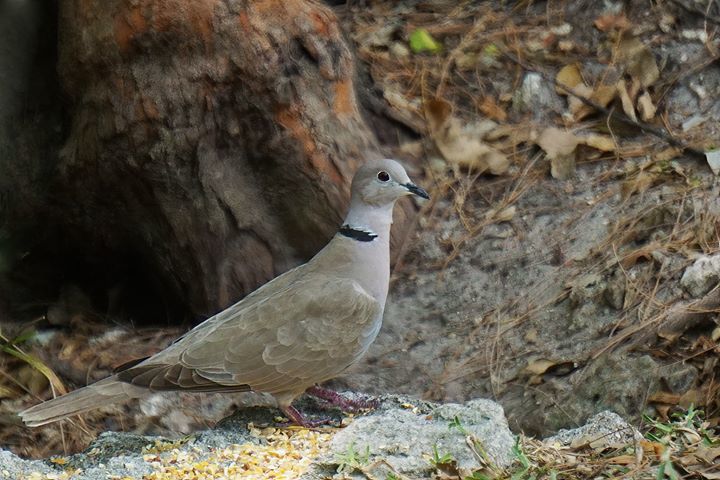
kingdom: Animalia
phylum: Chordata
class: Aves
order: Columbiformes
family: Columbidae
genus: Streptopelia
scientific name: Streptopelia decaocto
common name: Eurasian collared dove
